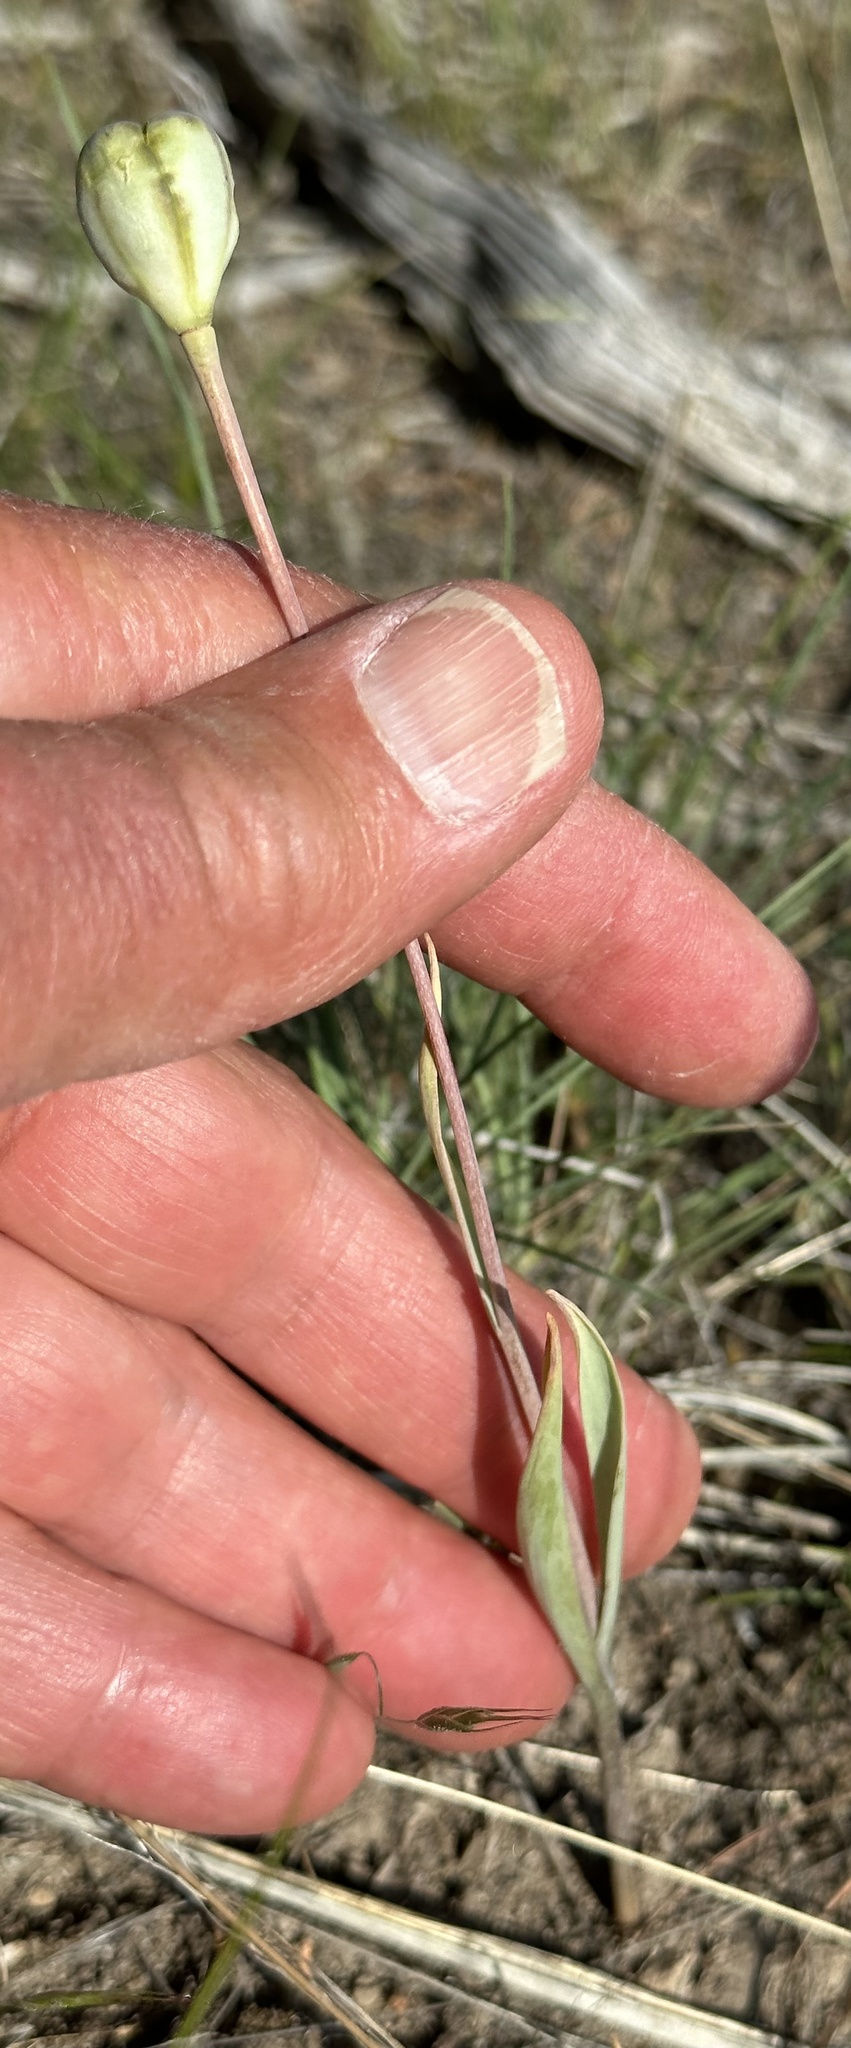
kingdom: Plantae
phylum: Tracheophyta
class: Liliopsida
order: Liliales
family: Liliaceae
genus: Fritillaria
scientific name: Fritillaria pudica
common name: Yellow fritillary
